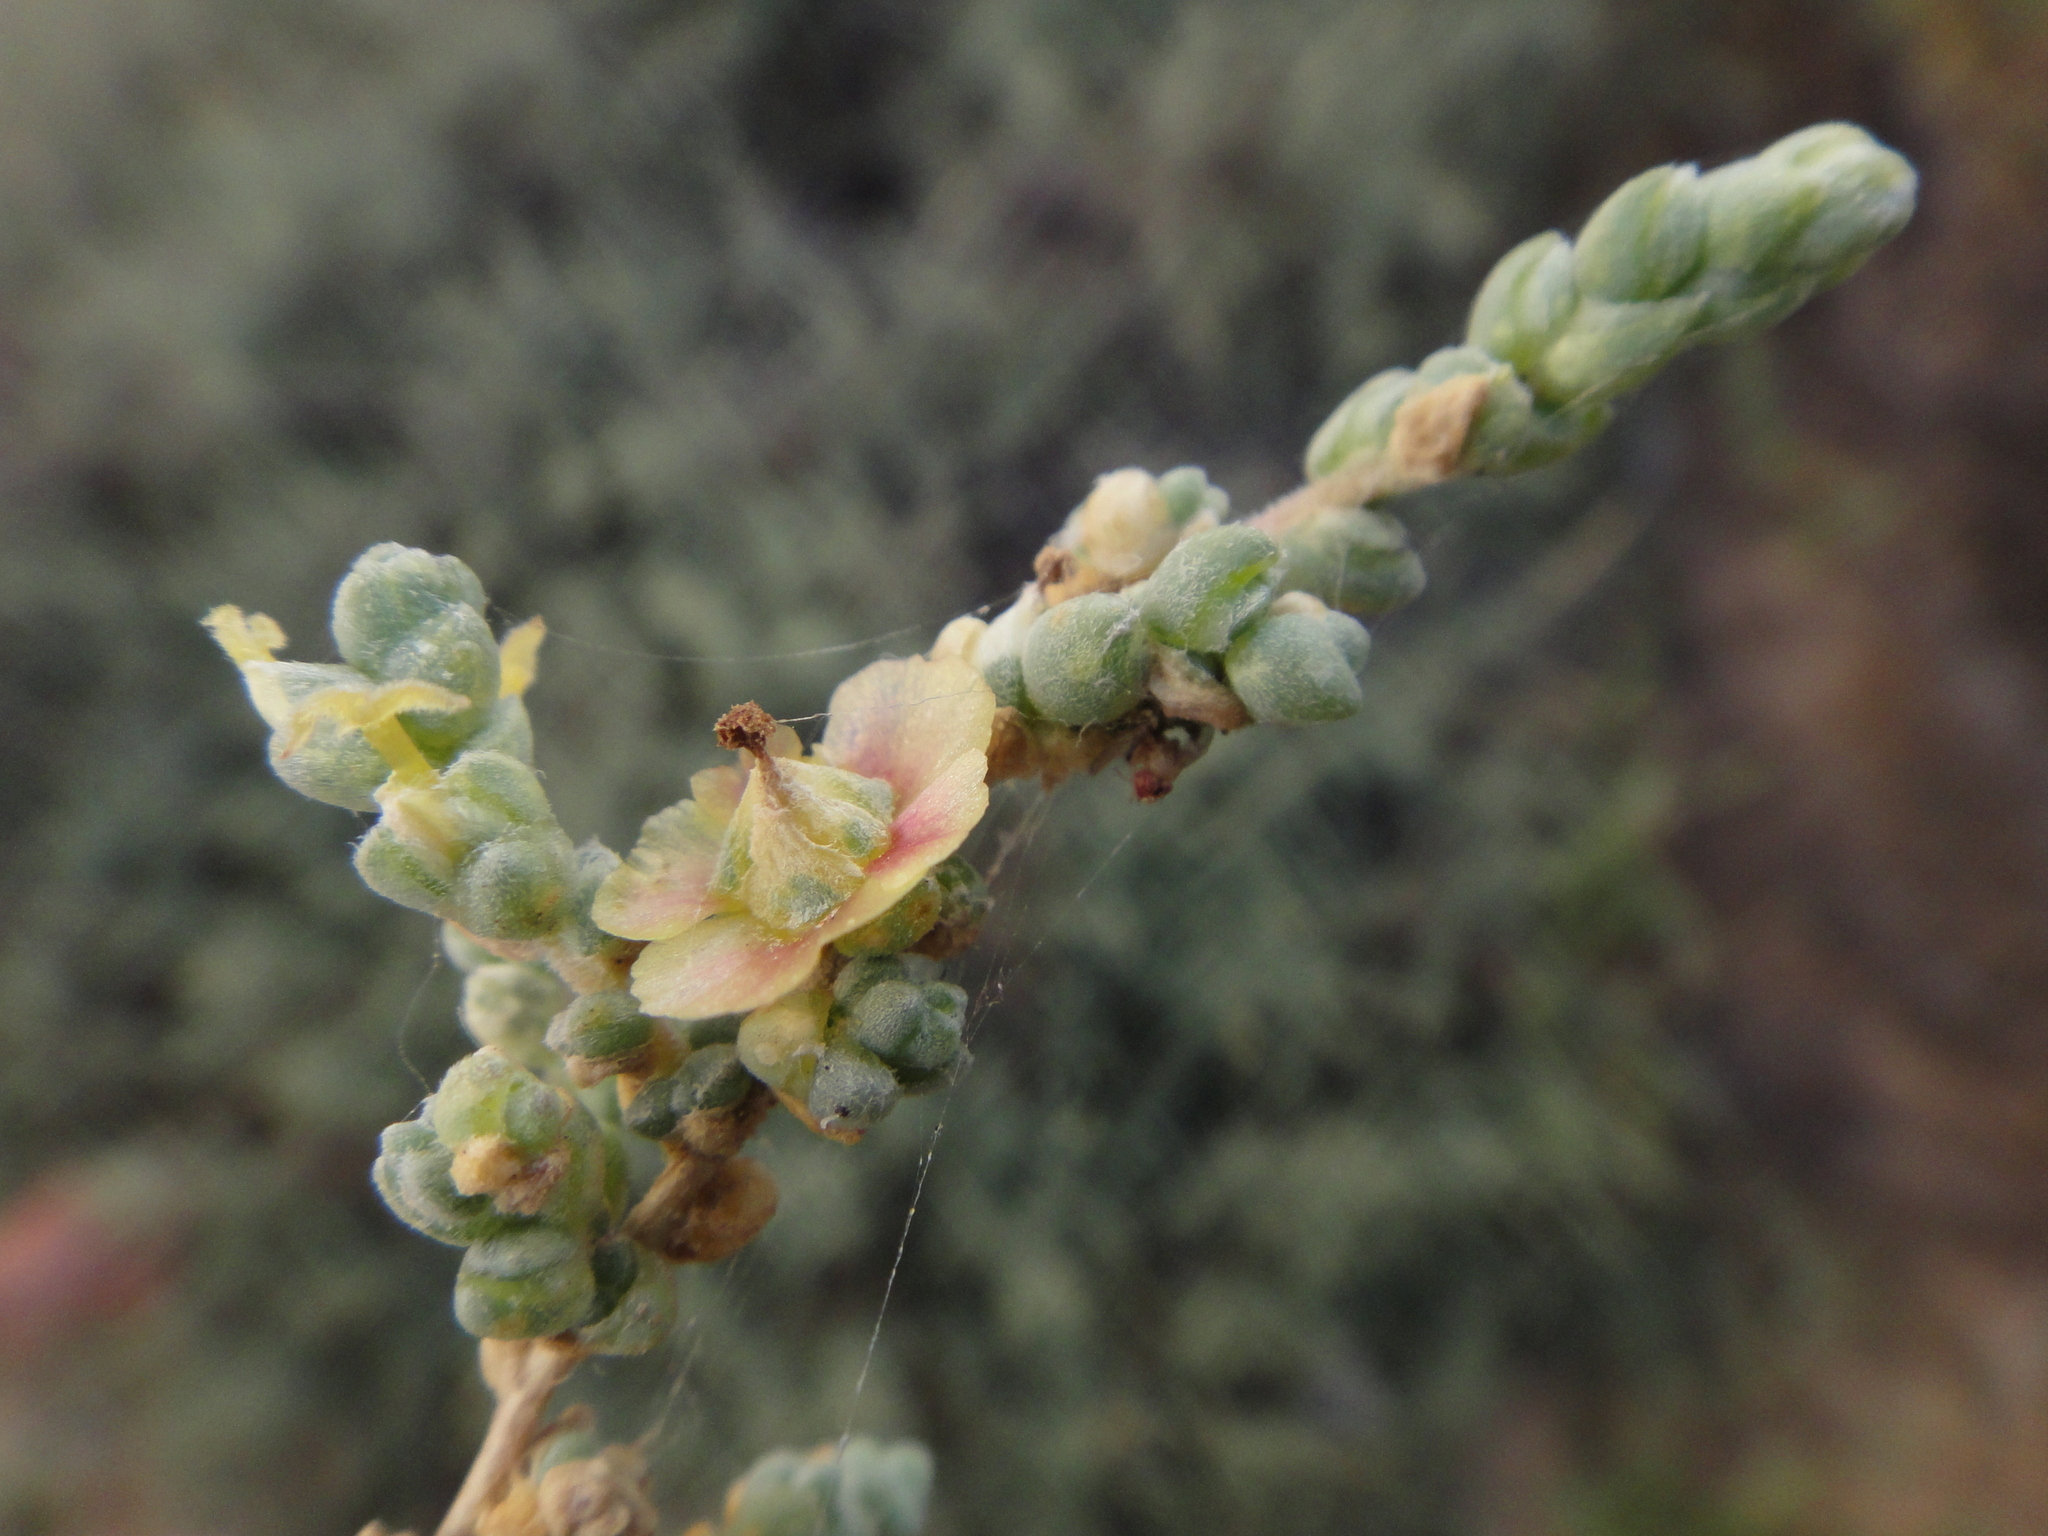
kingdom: Plantae
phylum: Tracheophyta
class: Magnoliopsida
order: Caryophyllales
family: Amaranthaceae
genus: Nitrosalsola
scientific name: Nitrosalsola vermiculata
